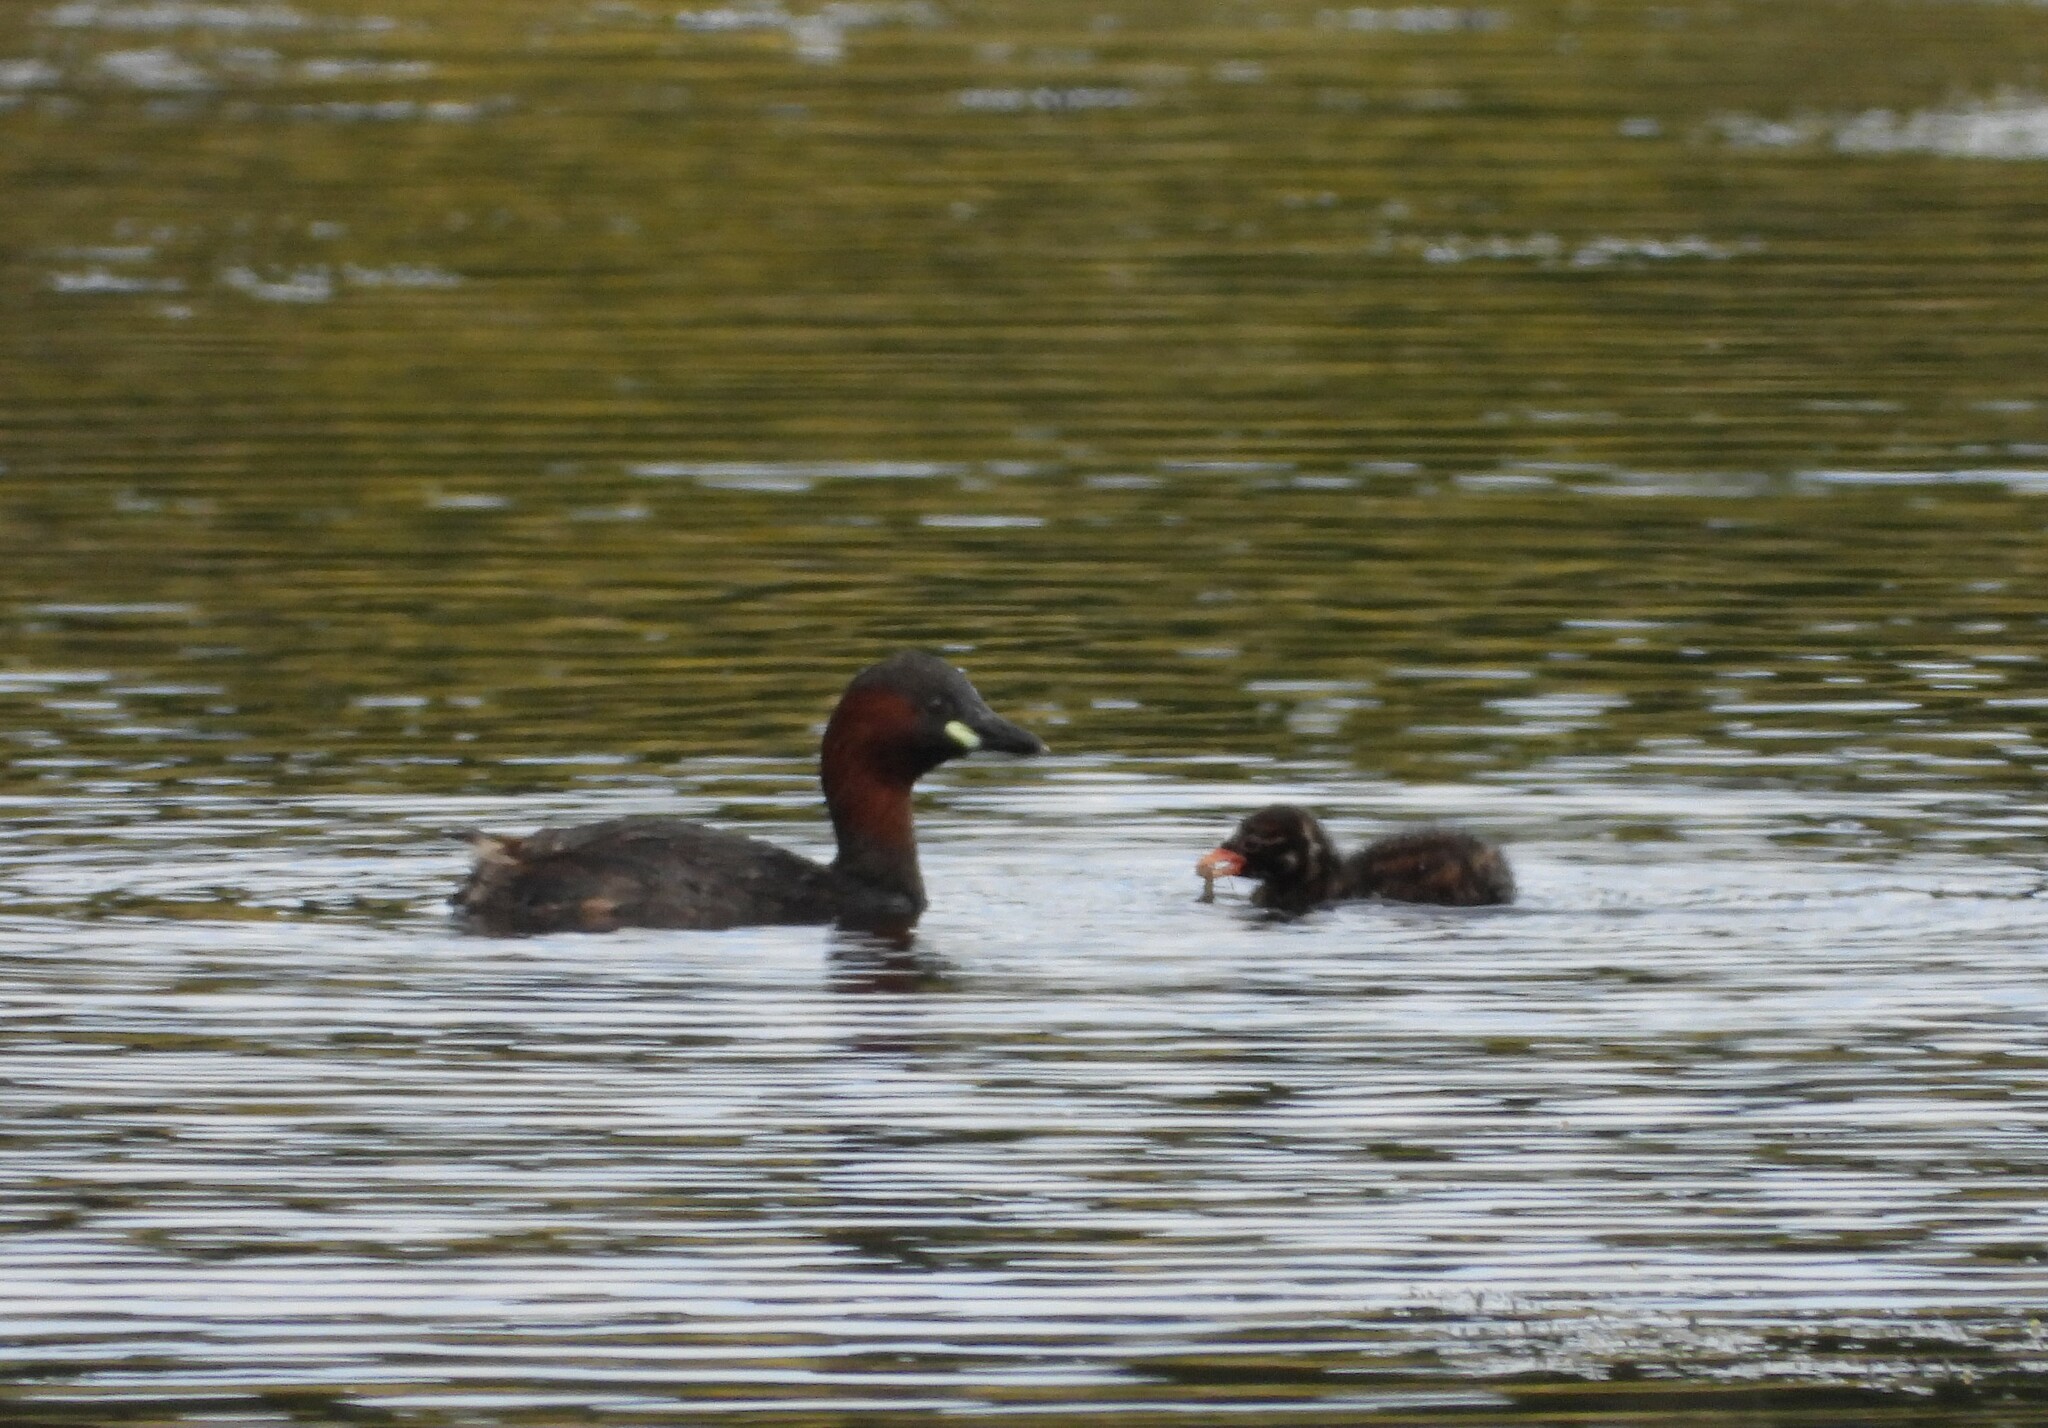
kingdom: Animalia
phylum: Chordata
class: Aves
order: Podicipediformes
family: Podicipedidae
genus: Tachybaptus
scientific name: Tachybaptus ruficollis
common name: Little grebe
